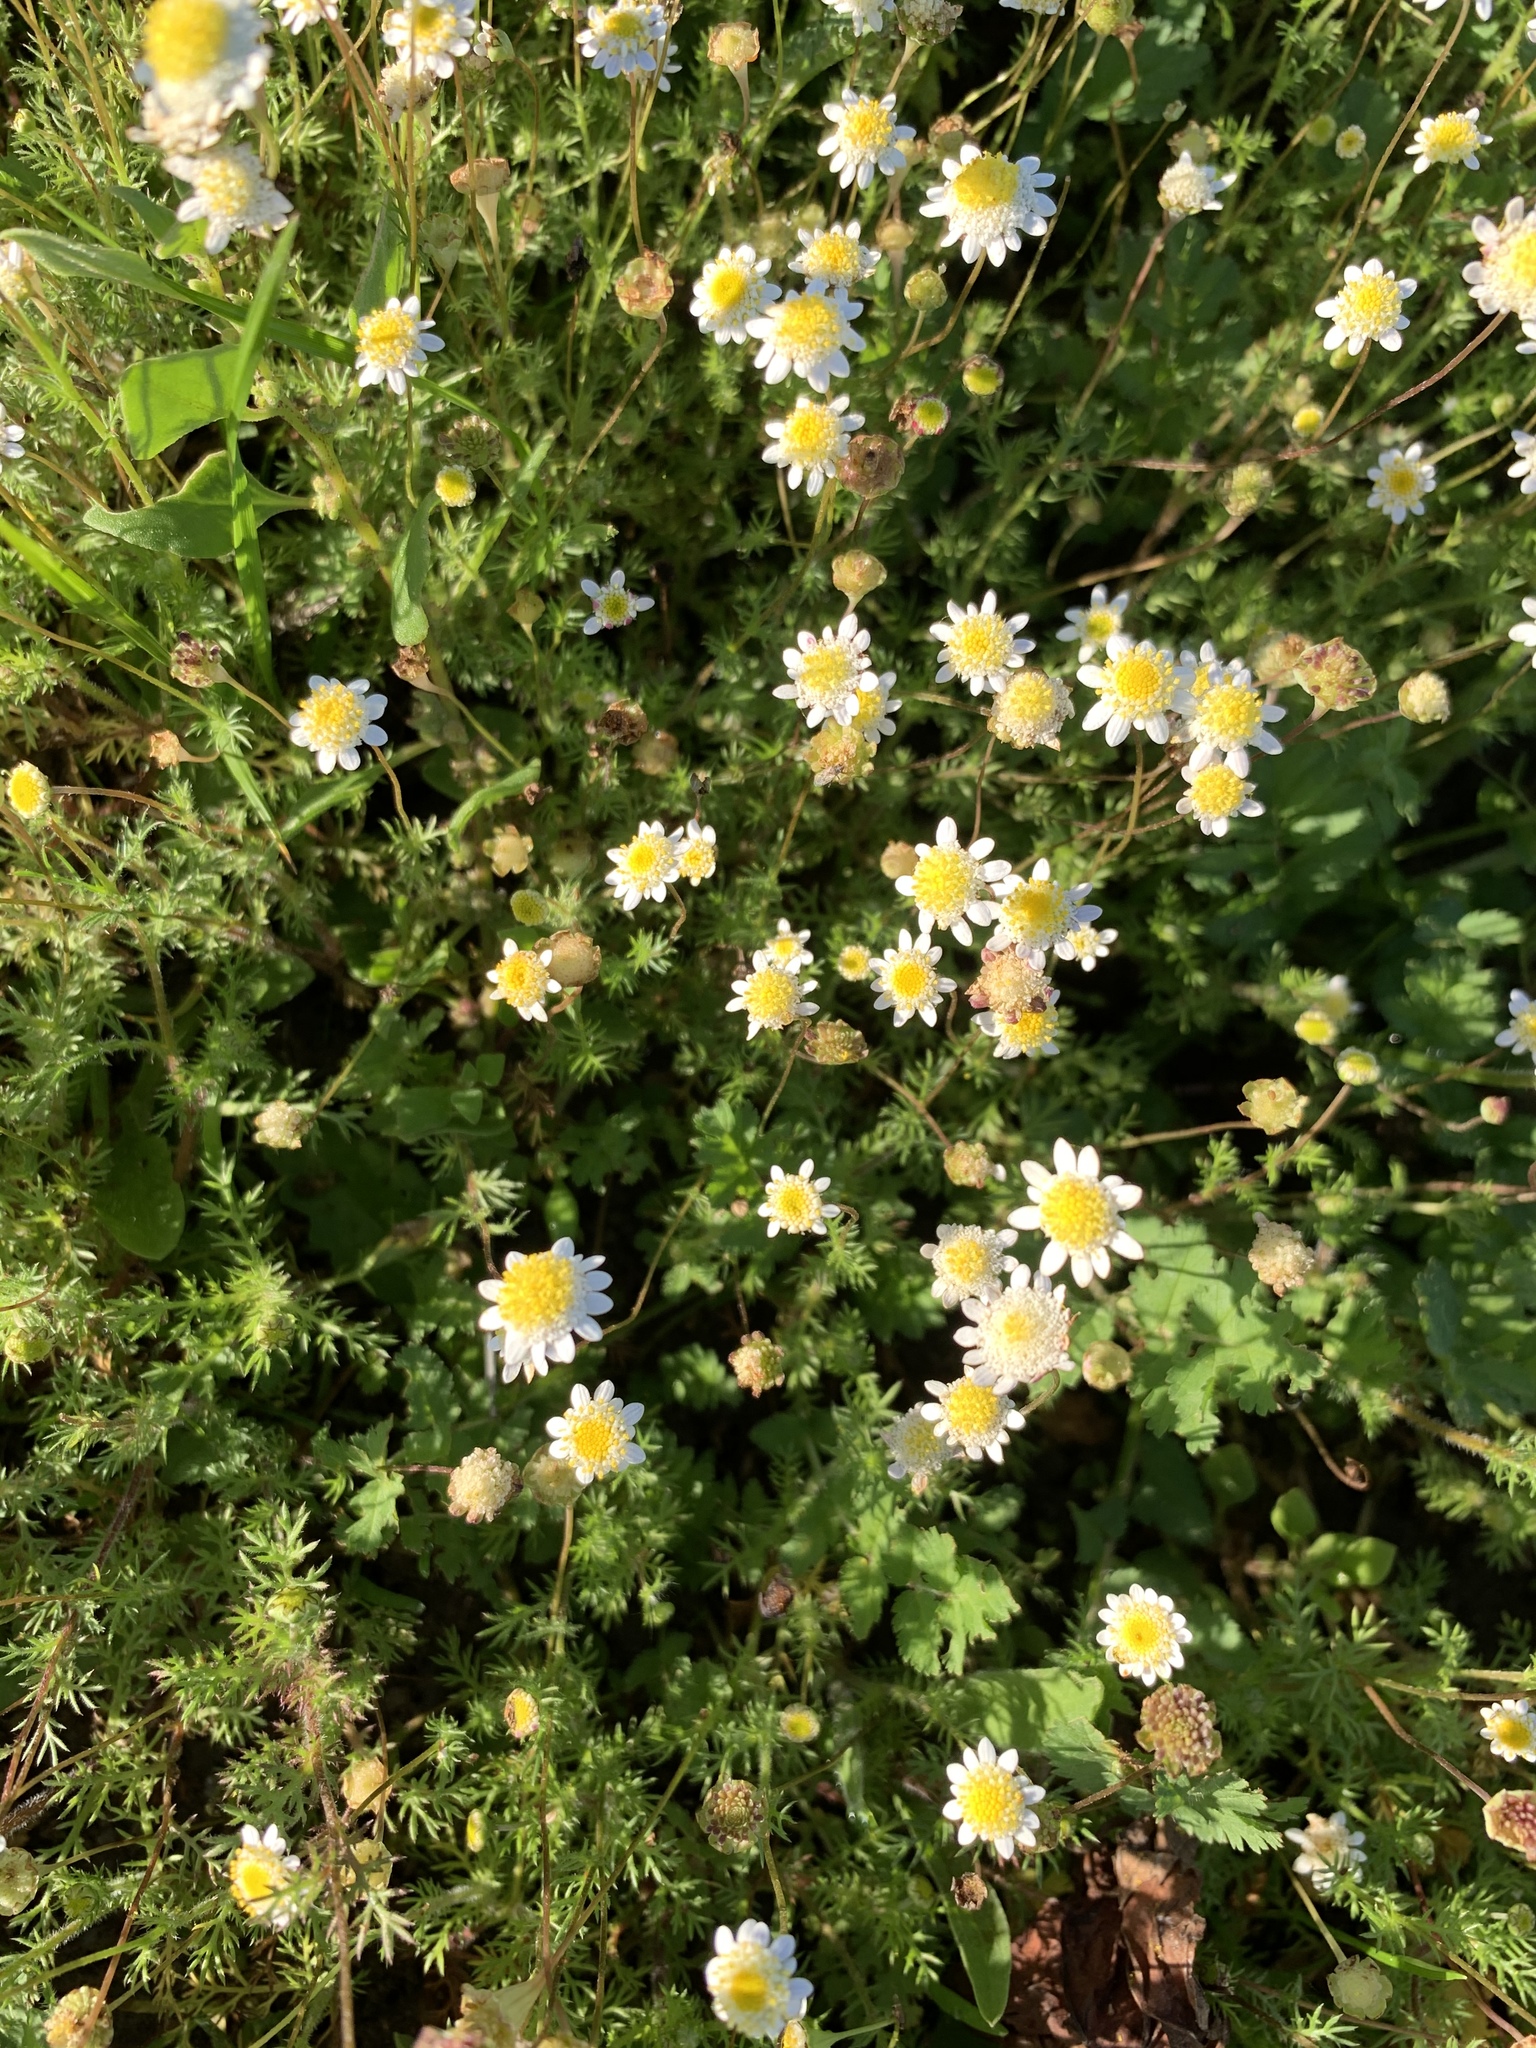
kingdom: Plantae
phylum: Tracheophyta
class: Magnoliopsida
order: Asterales
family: Asteraceae
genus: Cotula
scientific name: Cotula turbinata
